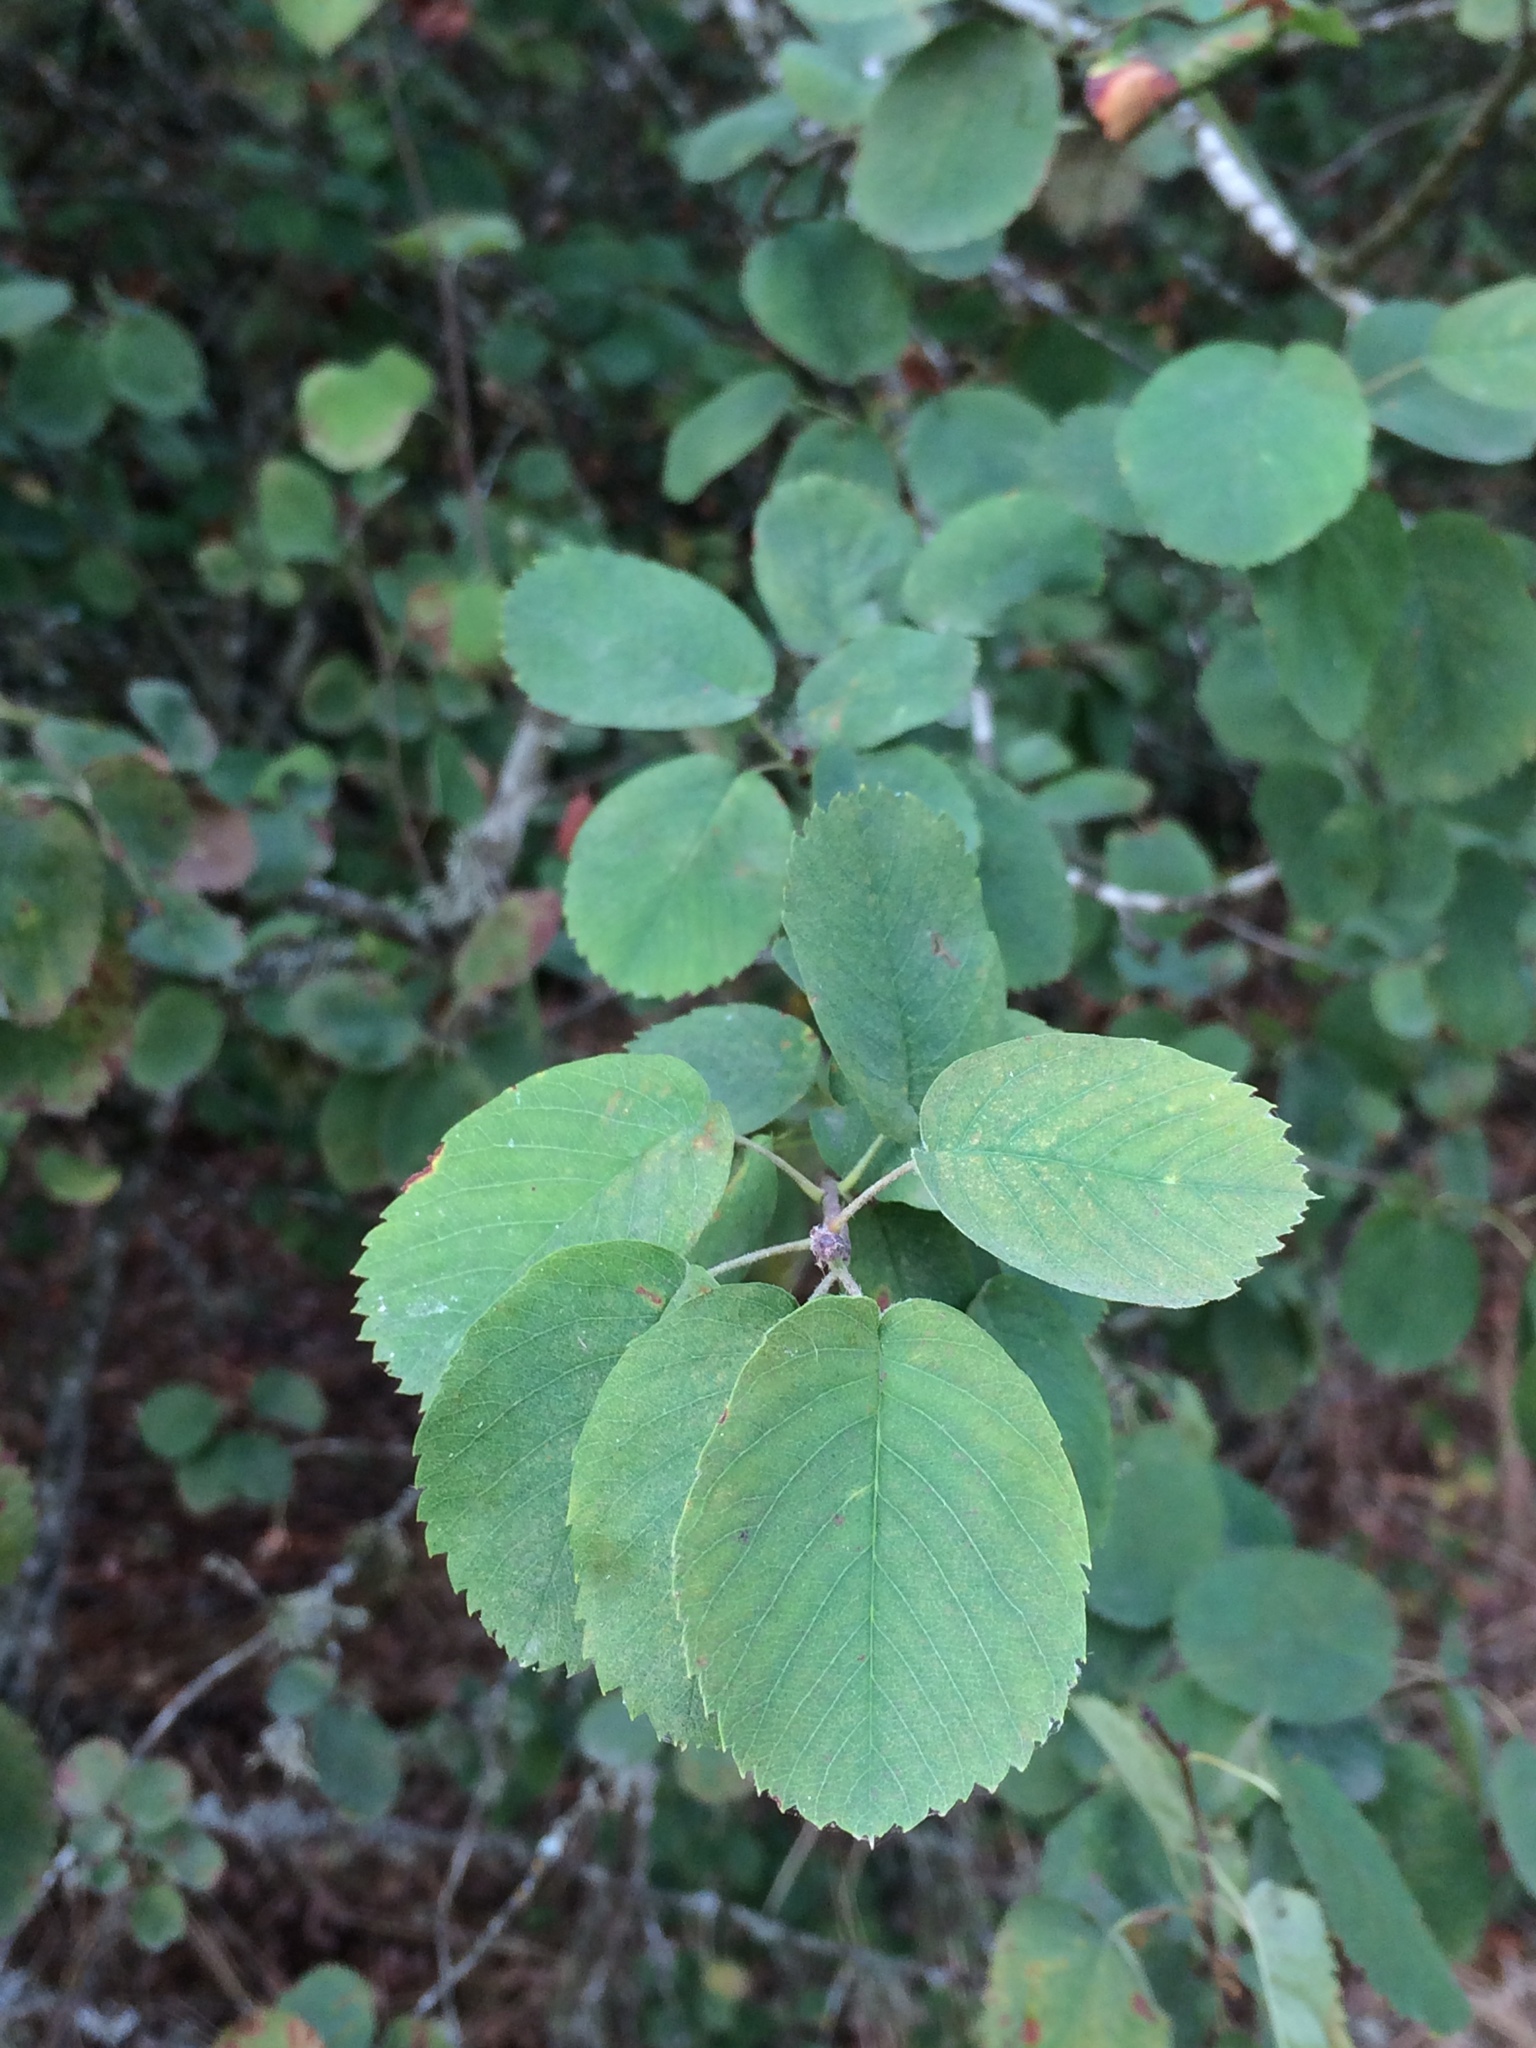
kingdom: Plantae
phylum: Tracheophyta
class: Magnoliopsida
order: Rosales
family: Rosaceae
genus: Amelanchier
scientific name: Amelanchier alnifolia
